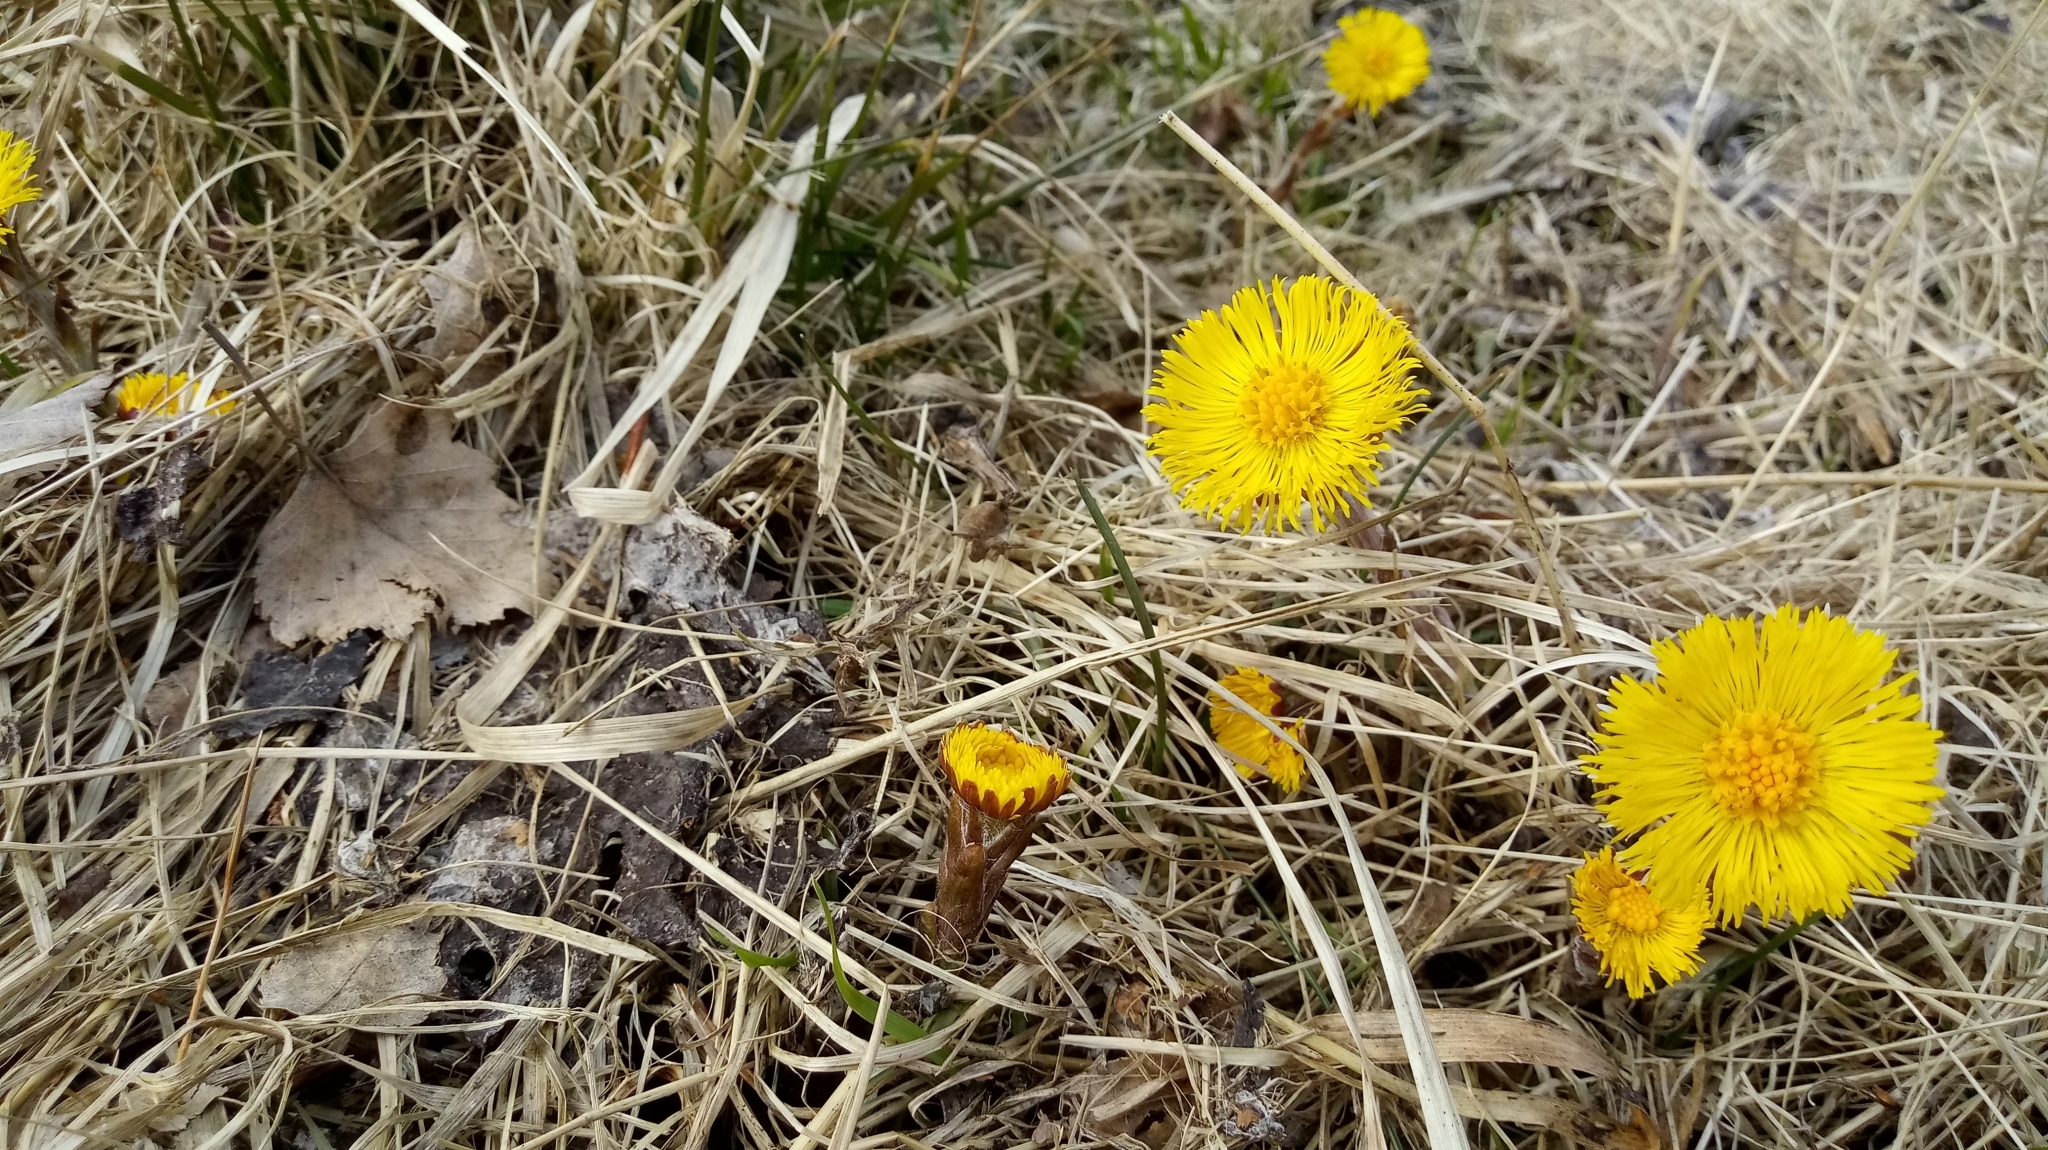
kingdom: Plantae
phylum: Tracheophyta
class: Magnoliopsida
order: Asterales
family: Asteraceae
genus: Tussilago
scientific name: Tussilago farfara
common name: Coltsfoot
